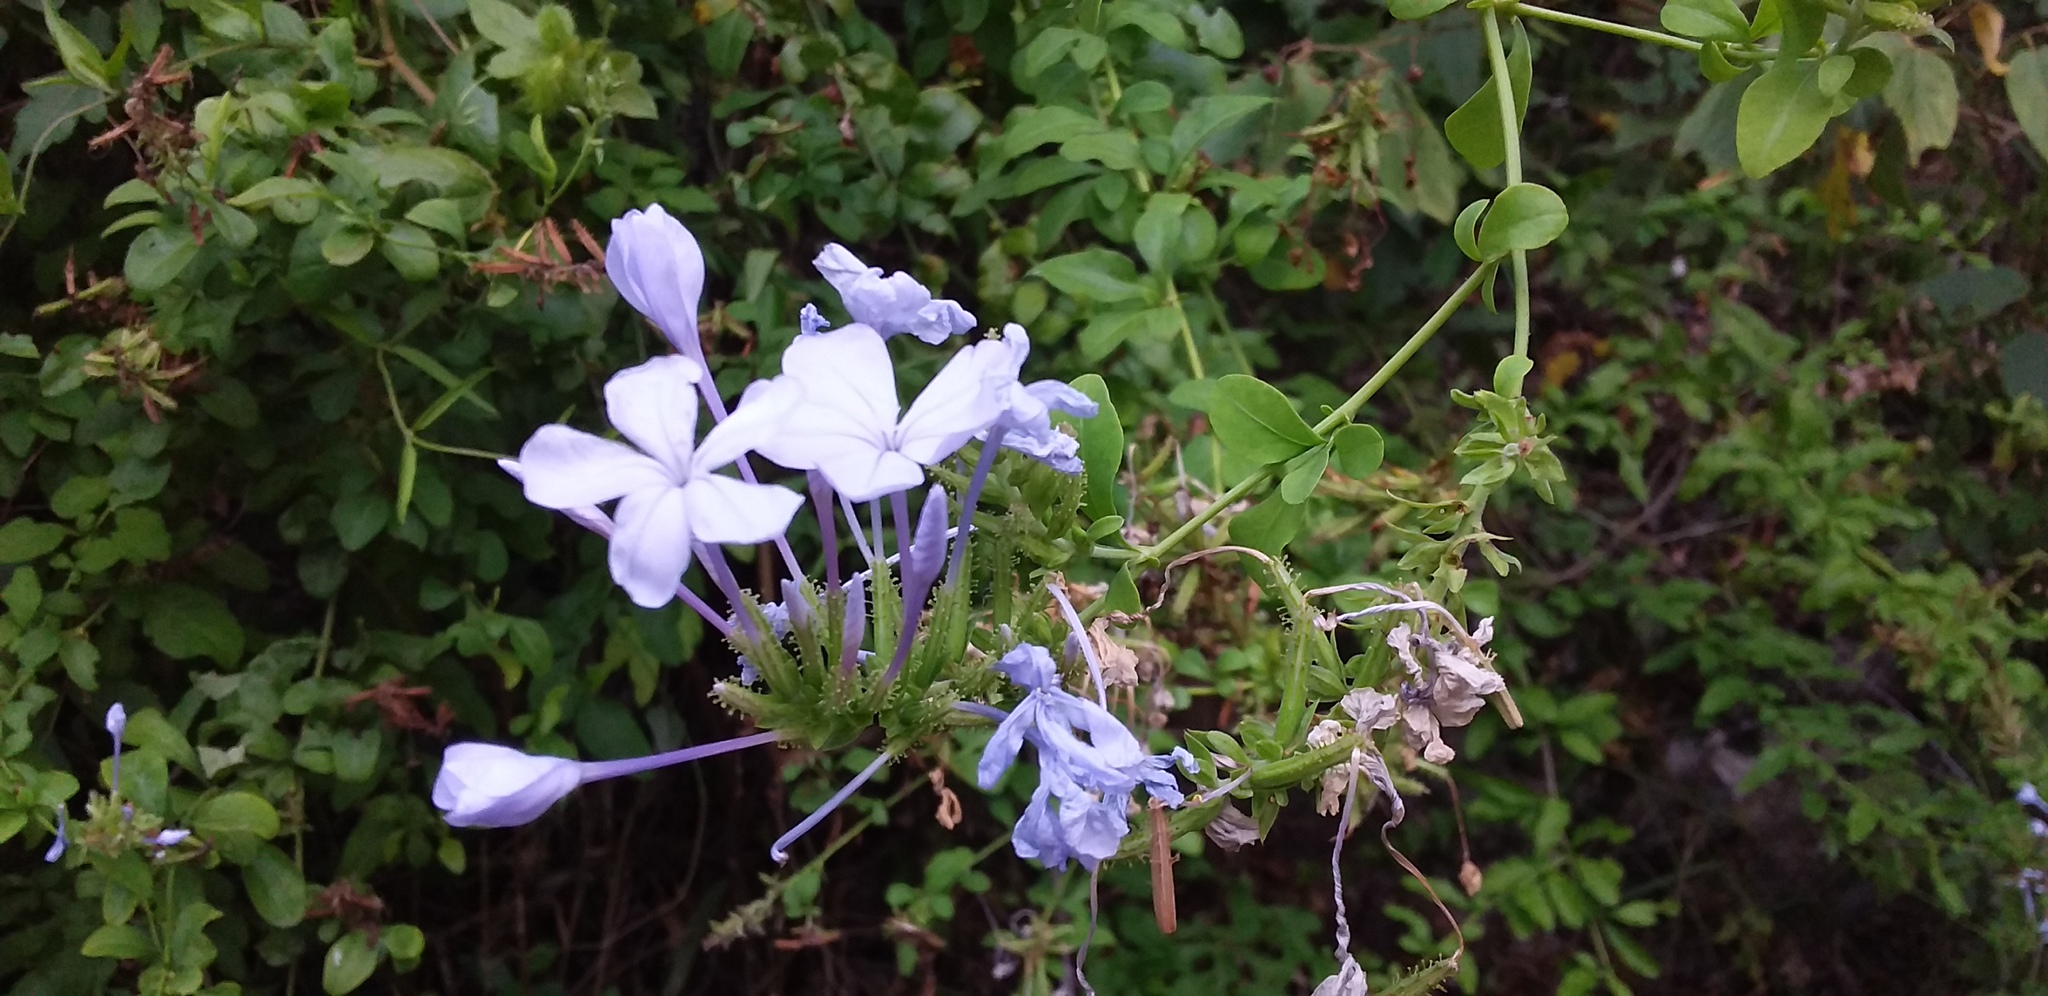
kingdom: Plantae
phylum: Tracheophyta
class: Magnoliopsida
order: Caryophyllales
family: Plumbaginaceae
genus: Plumbago
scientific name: Plumbago auriculata
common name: Cape leadwort
